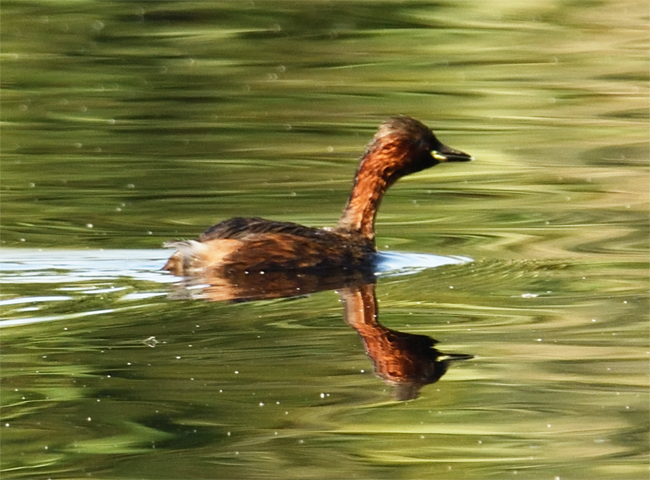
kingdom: Animalia
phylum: Chordata
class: Aves
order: Podicipediformes
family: Podicipedidae
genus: Tachybaptus
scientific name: Tachybaptus ruficollis
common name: Little grebe
